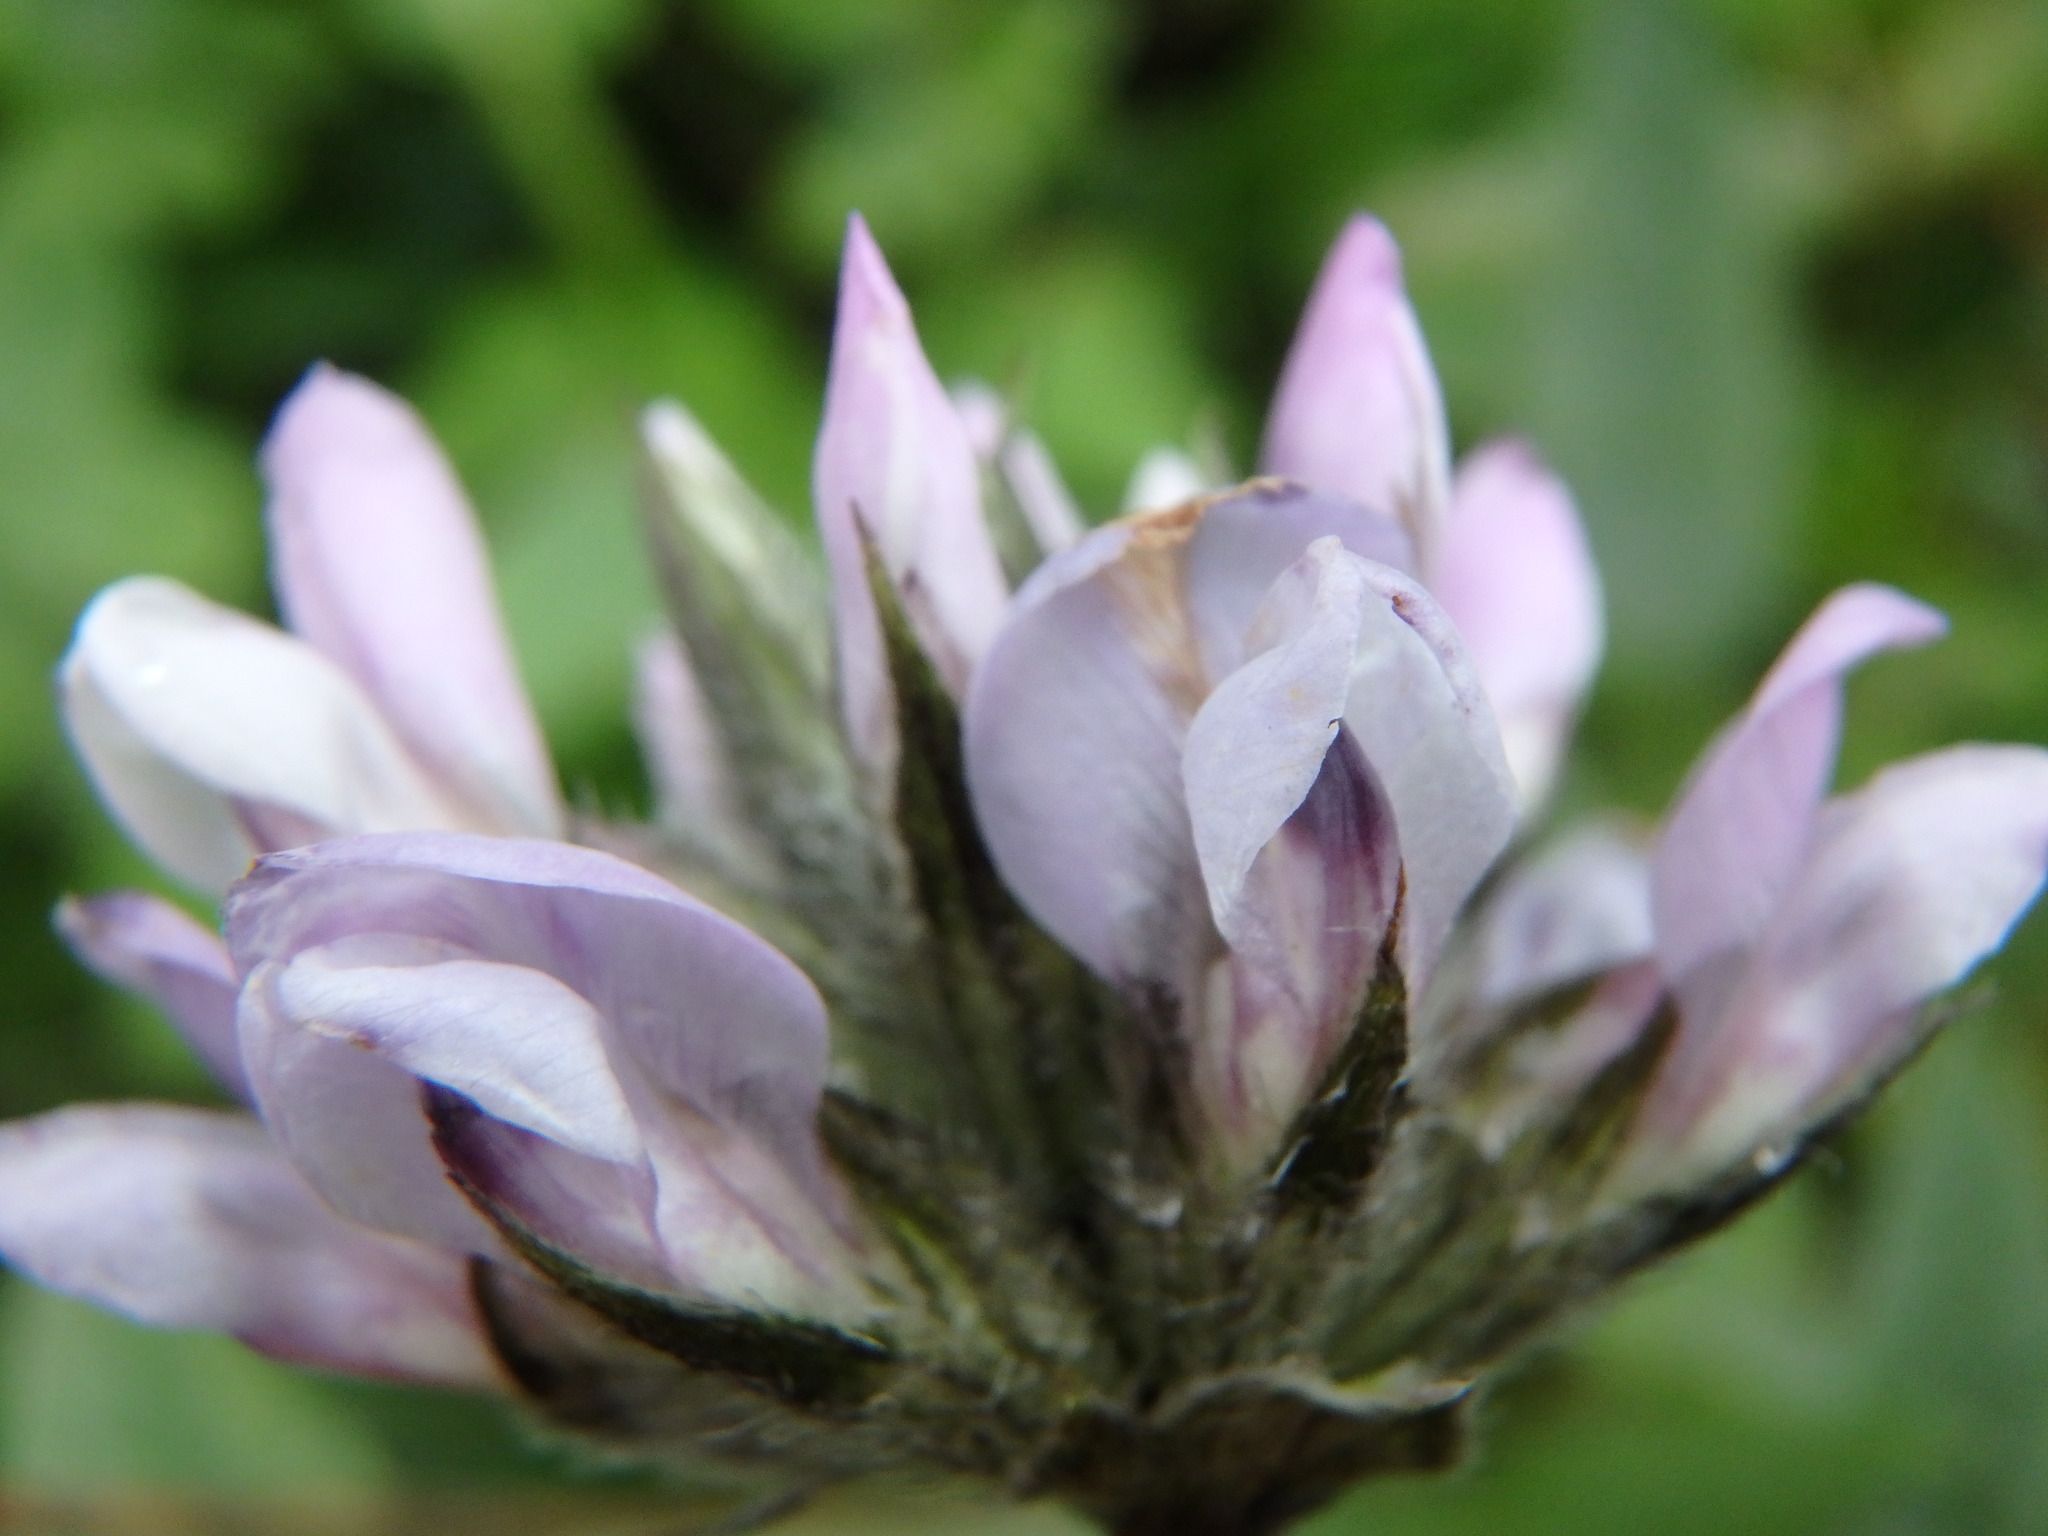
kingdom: Plantae
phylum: Tracheophyta
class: Magnoliopsida
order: Fabales
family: Fabaceae
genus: Bituminaria
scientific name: Bituminaria bituminosa
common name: Arabian pea
